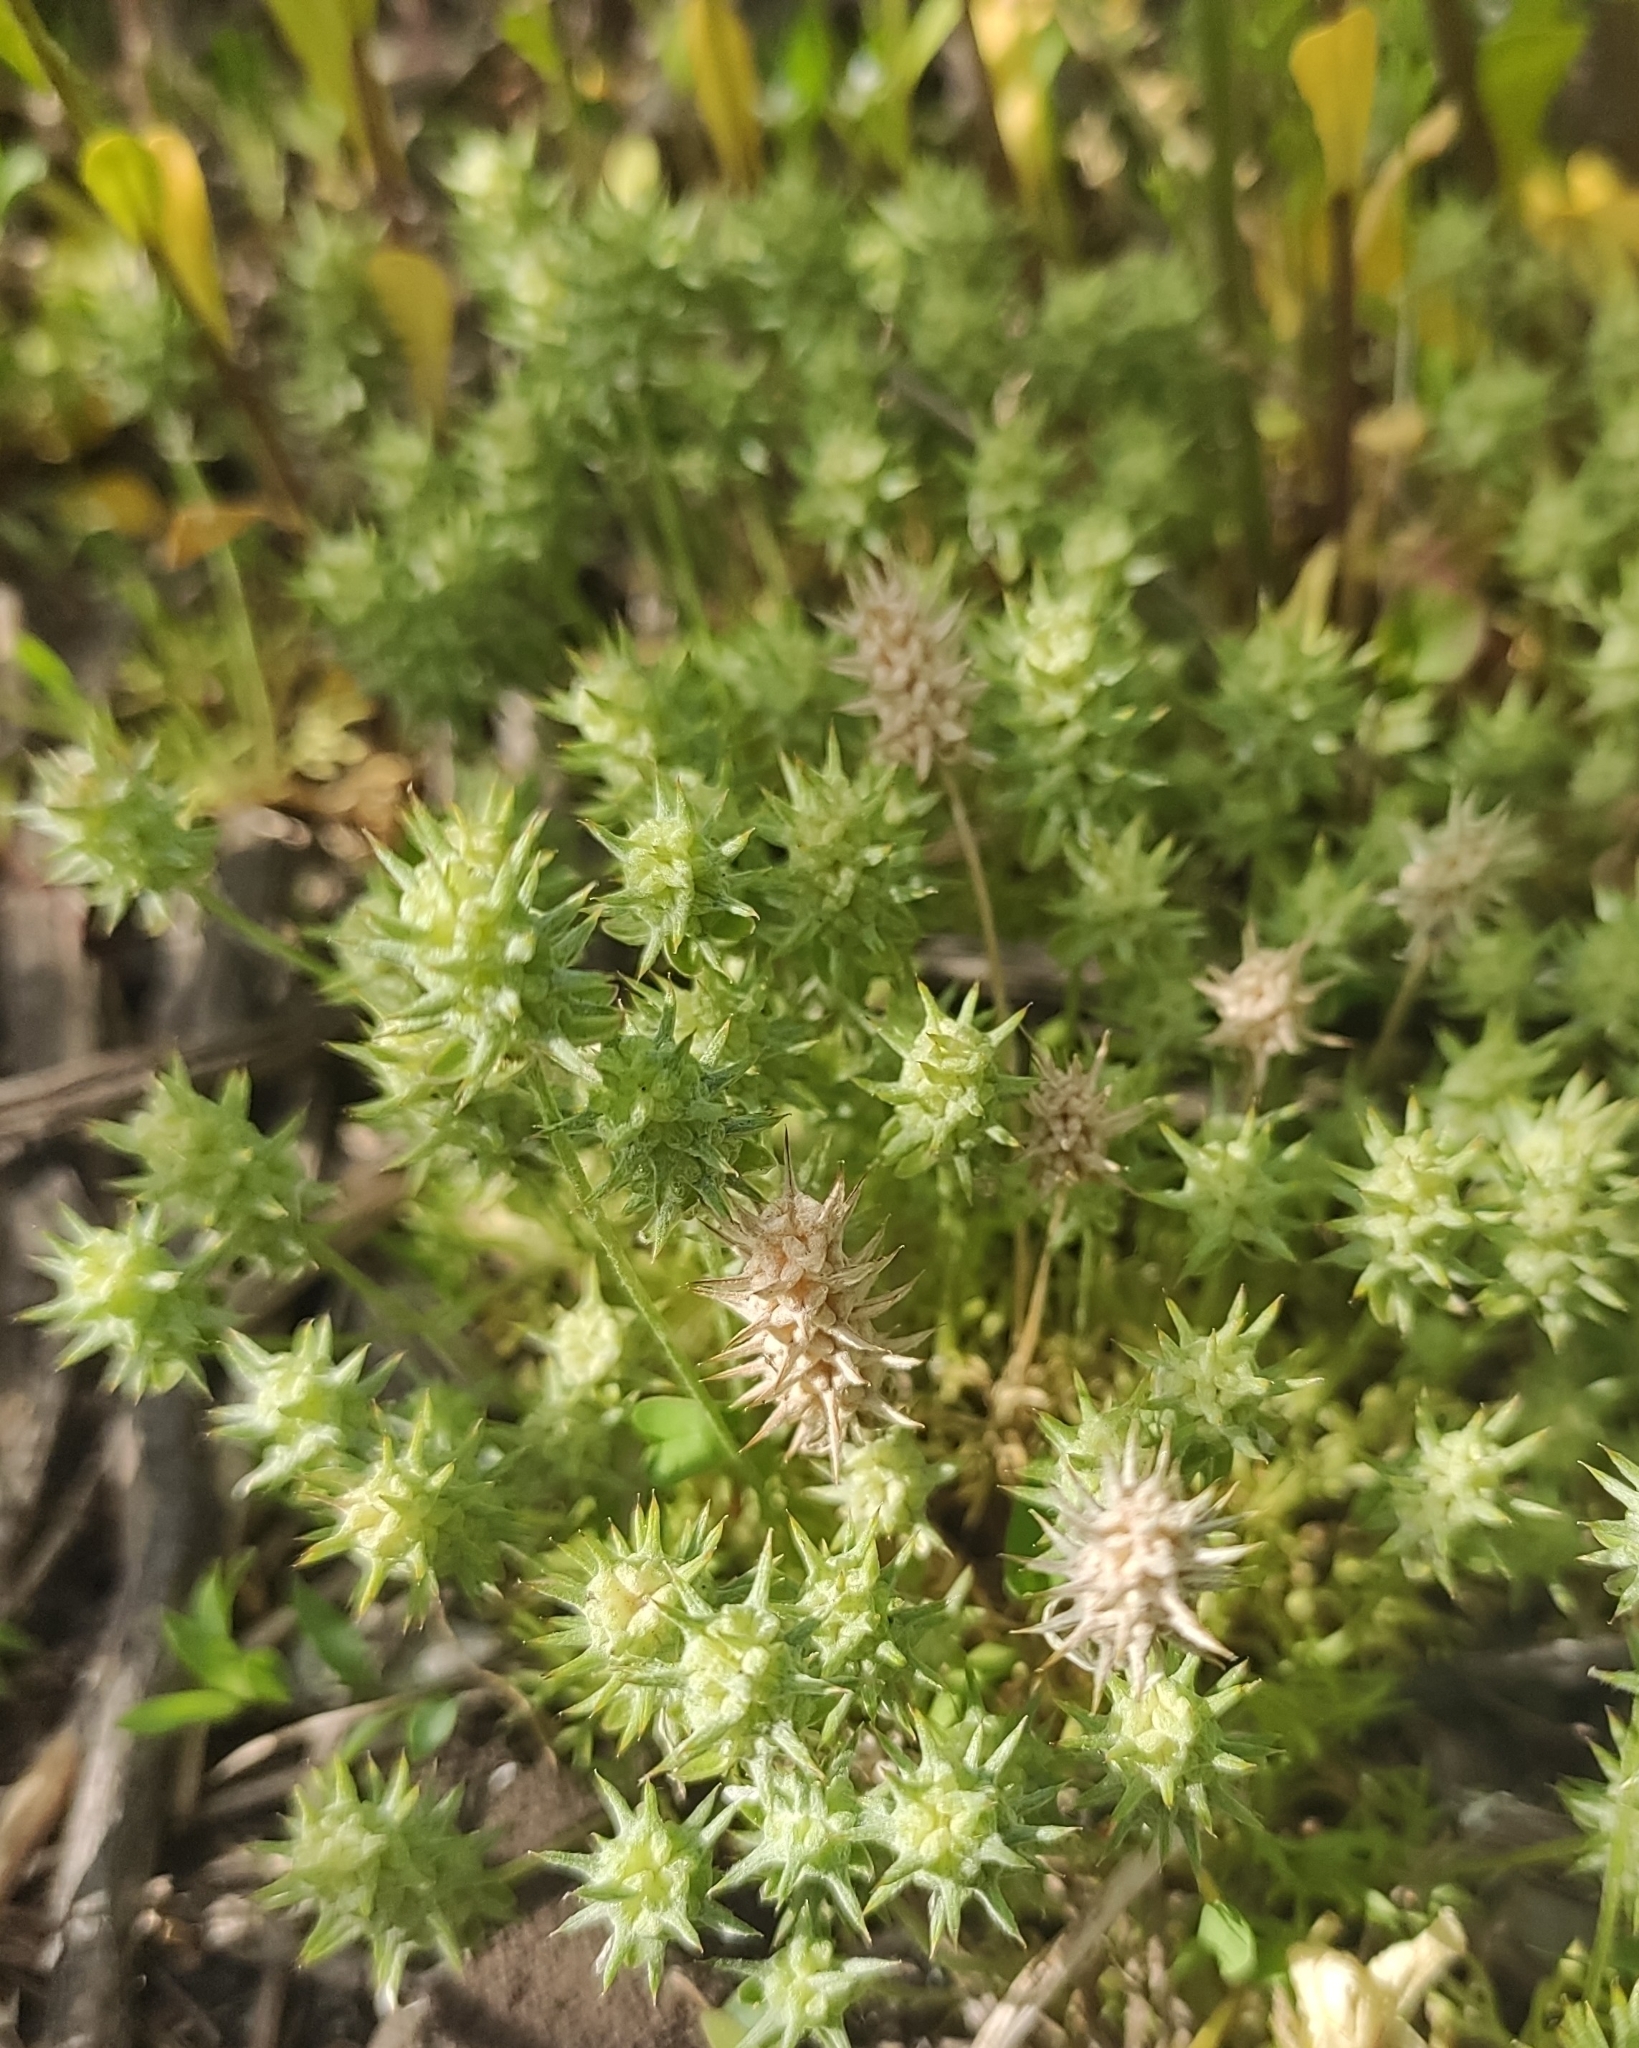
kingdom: Plantae
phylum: Tracheophyta
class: Magnoliopsida
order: Ranunculales
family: Ranunculaceae
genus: Ceratocephala
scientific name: Ceratocephala orthoceras
